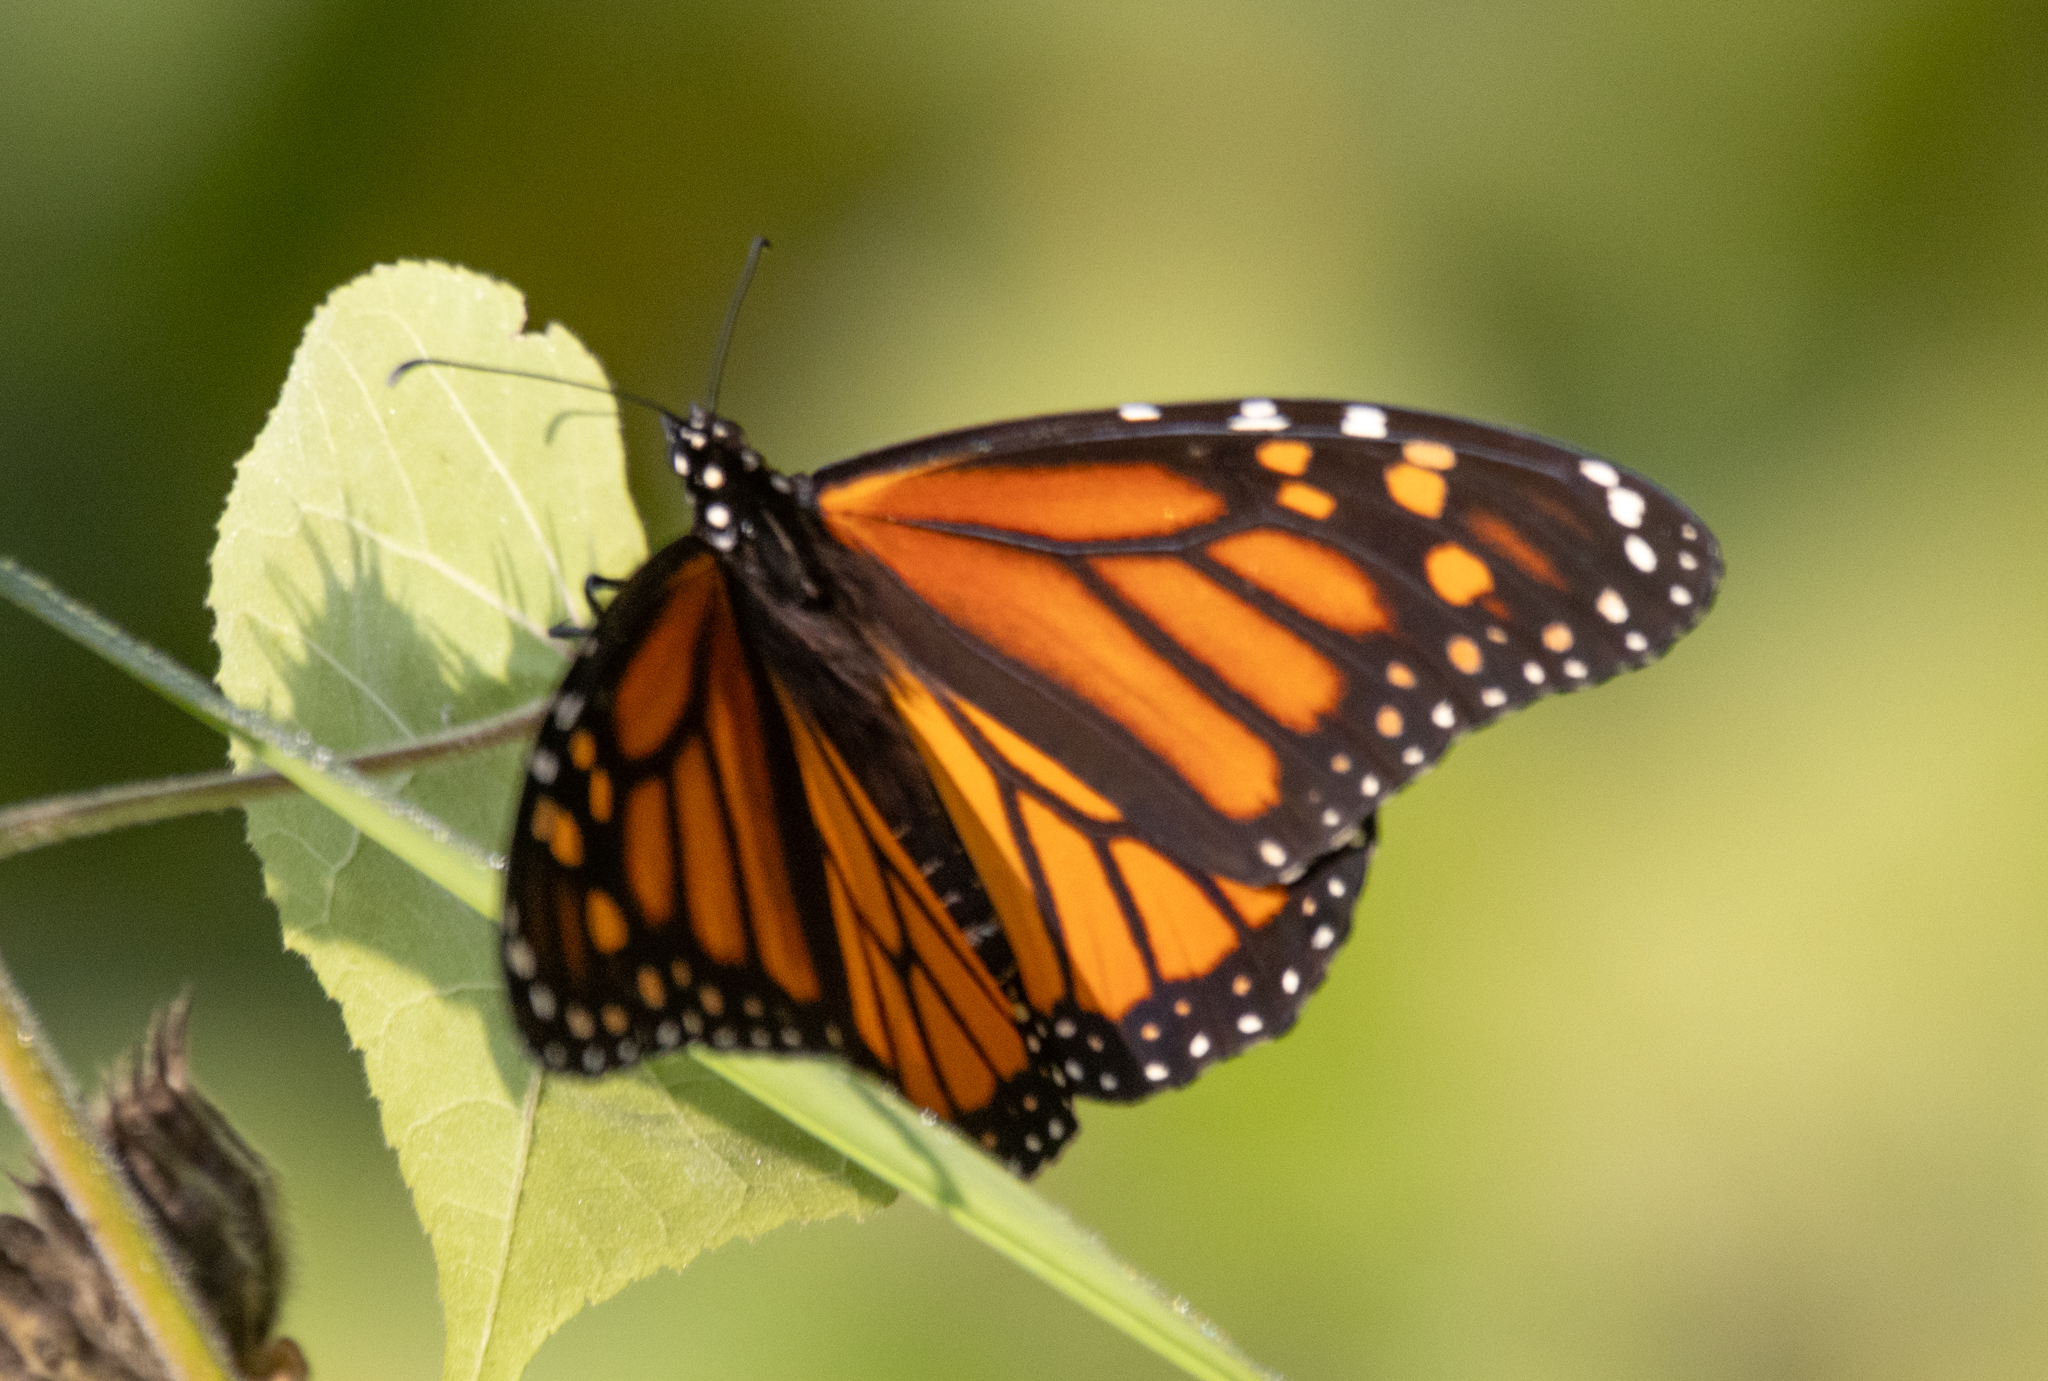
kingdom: Animalia
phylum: Arthropoda
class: Insecta
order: Lepidoptera
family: Nymphalidae
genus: Danaus
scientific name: Danaus plexippus
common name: Monarch
